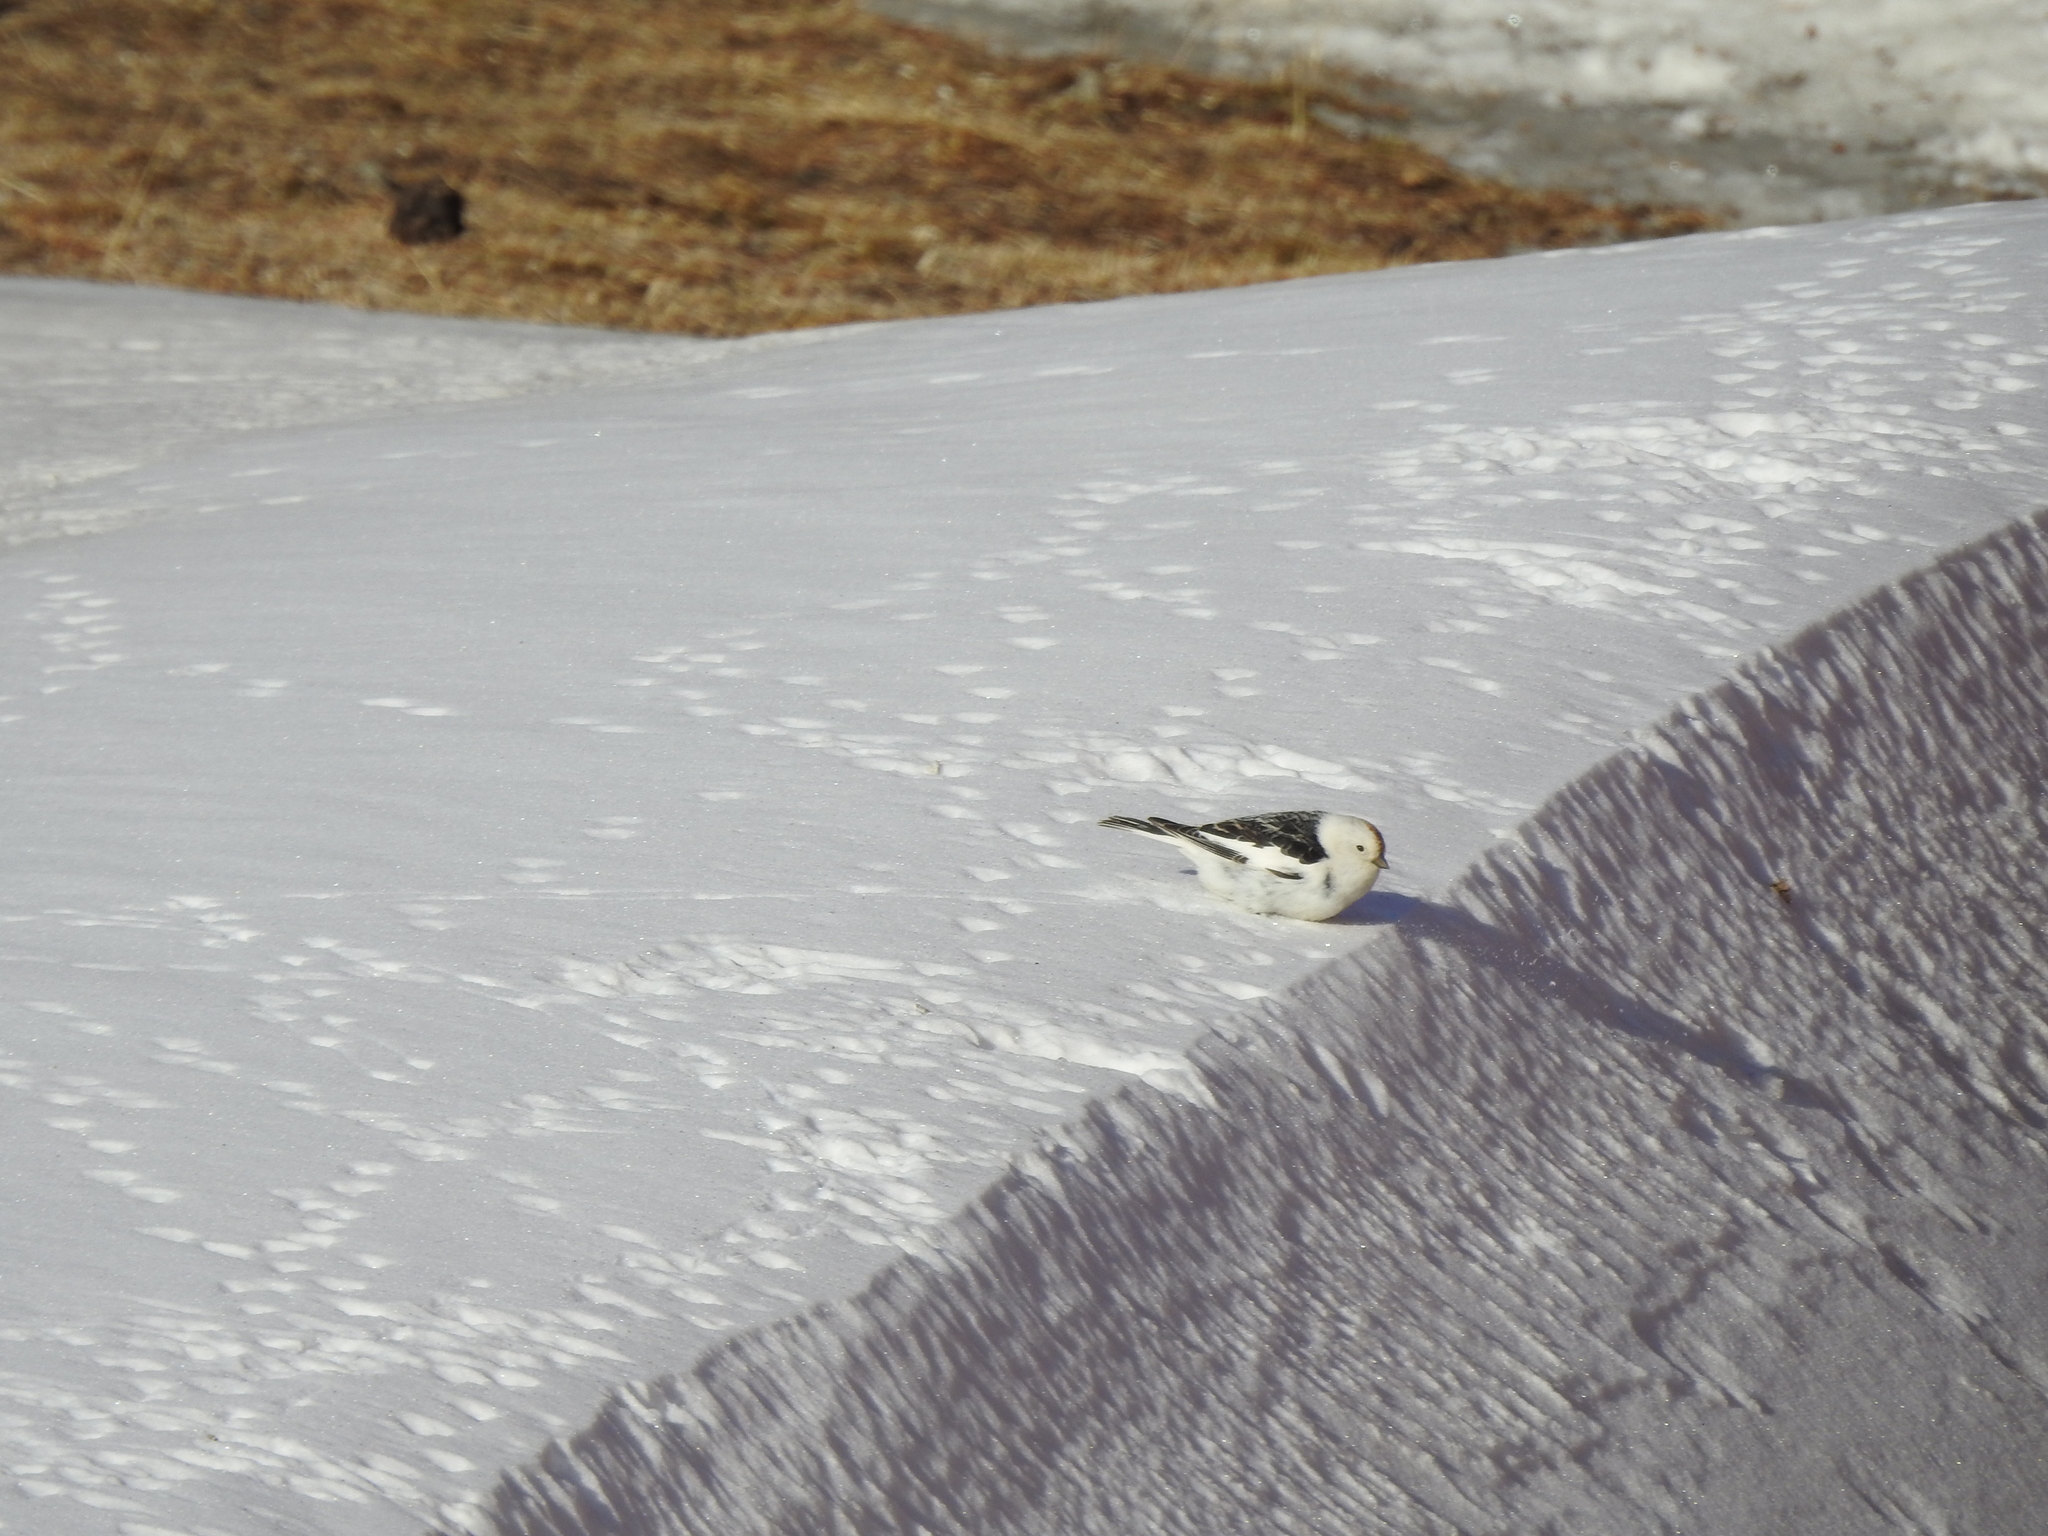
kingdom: Animalia
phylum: Chordata
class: Aves
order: Passeriformes
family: Calcariidae
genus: Plectrophenax
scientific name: Plectrophenax nivalis
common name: Snow bunting
